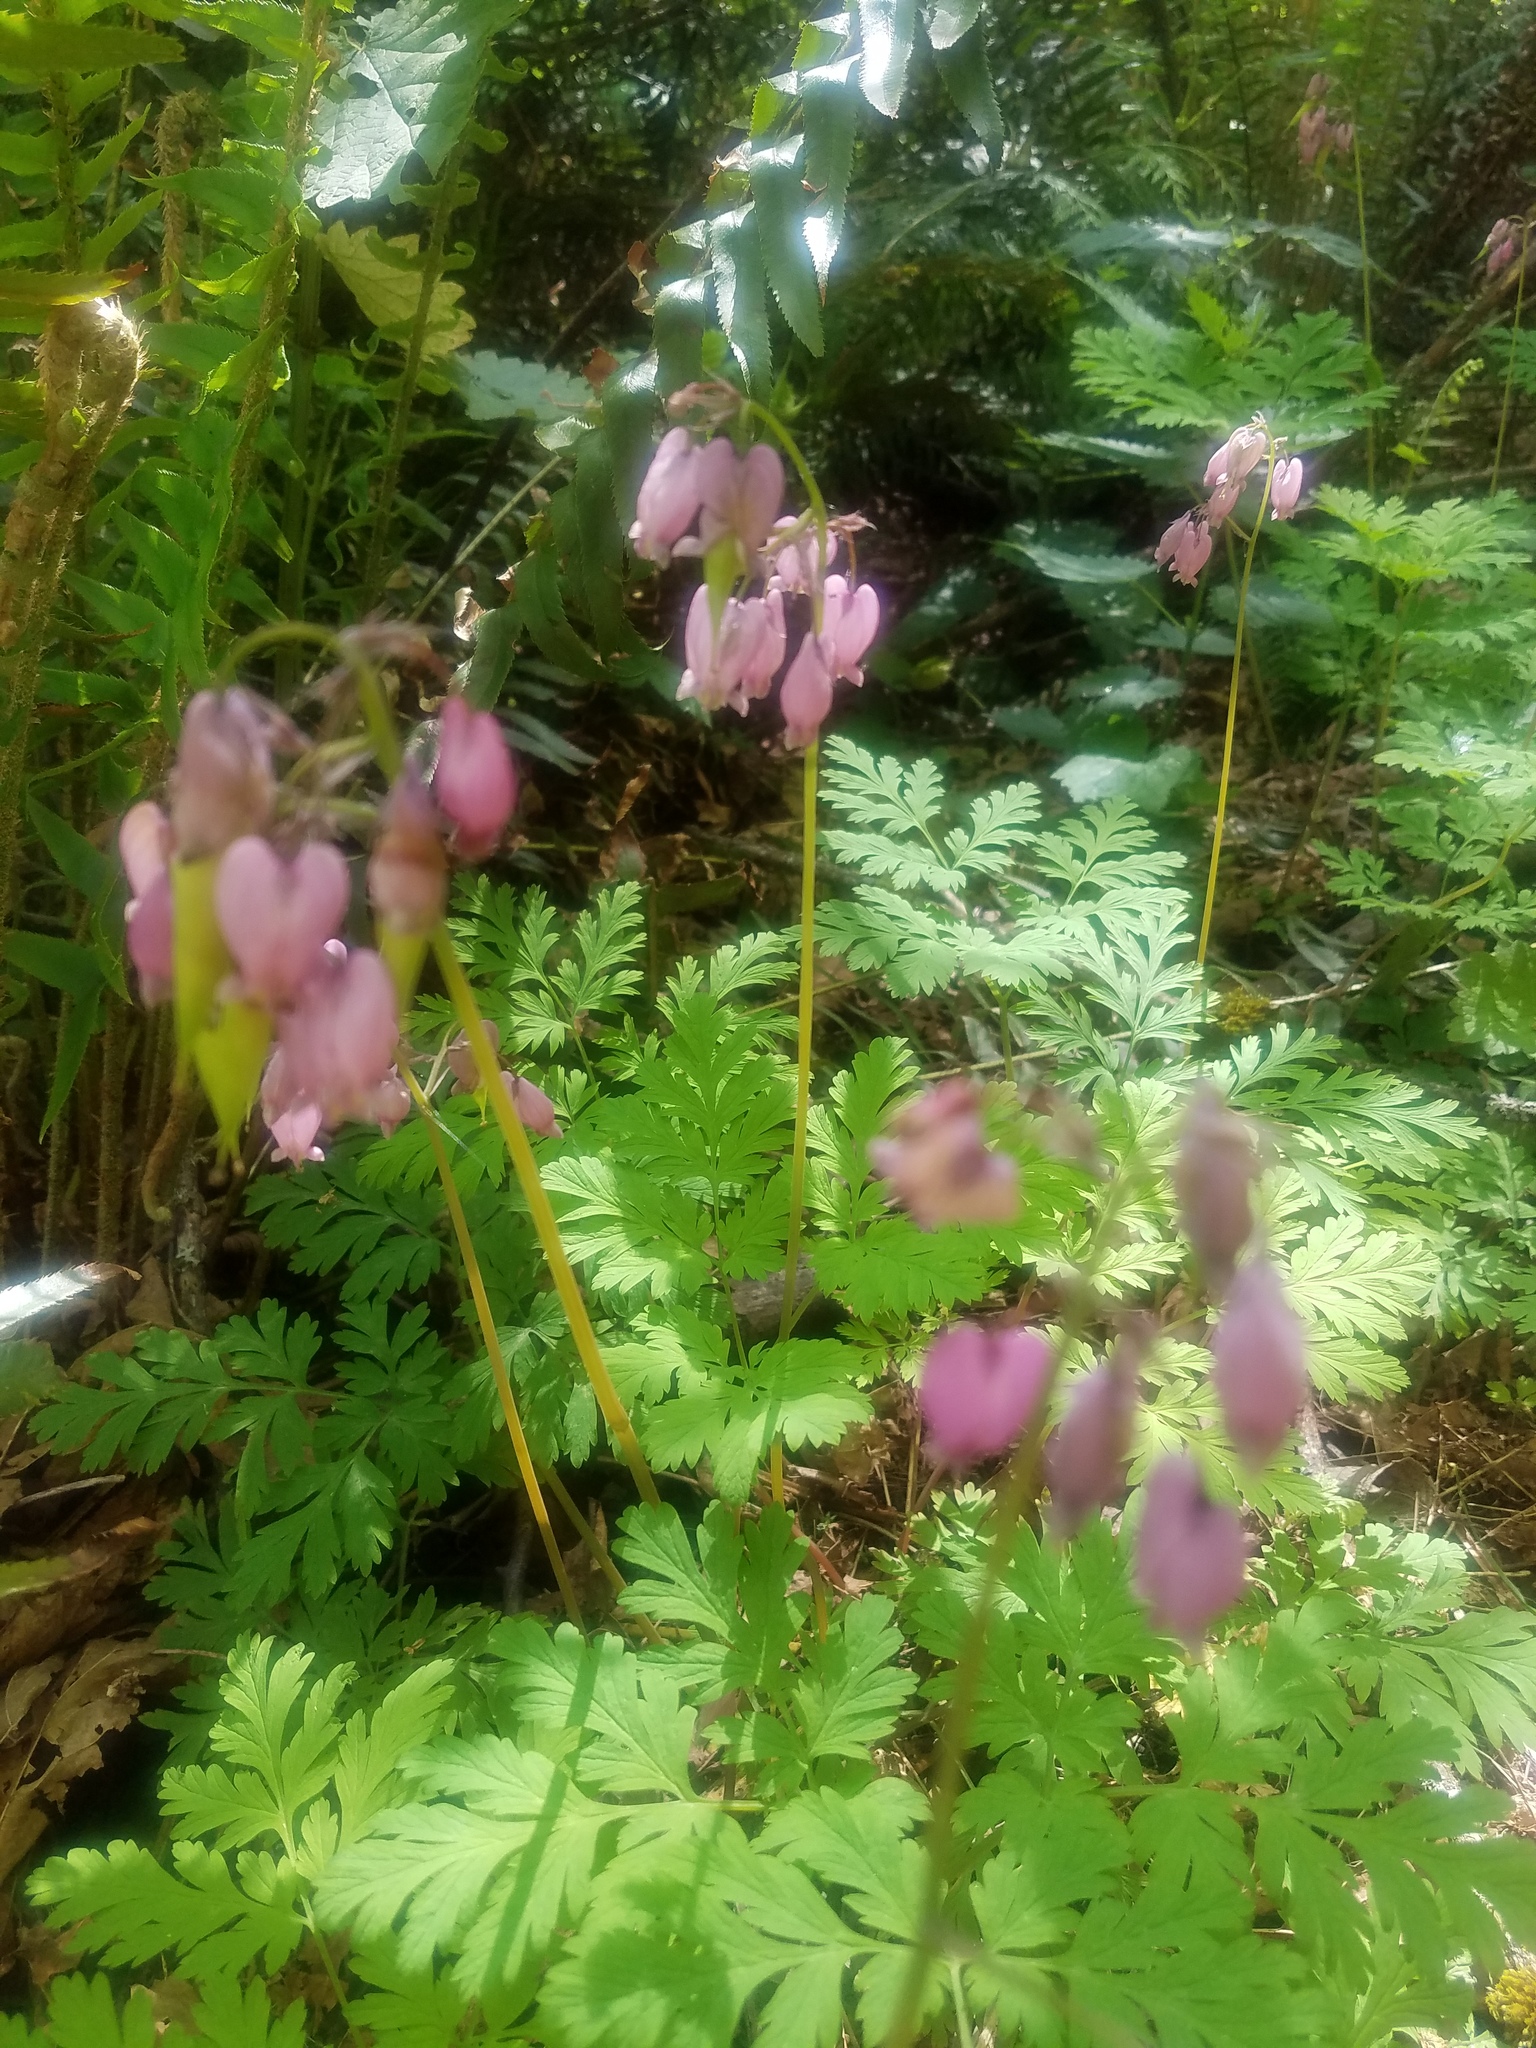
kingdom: Plantae
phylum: Tracheophyta
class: Magnoliopsida
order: Ranunculales
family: Papaveraceae
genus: Dicentra
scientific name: Dicentra formosa
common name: Bleeding-heart
